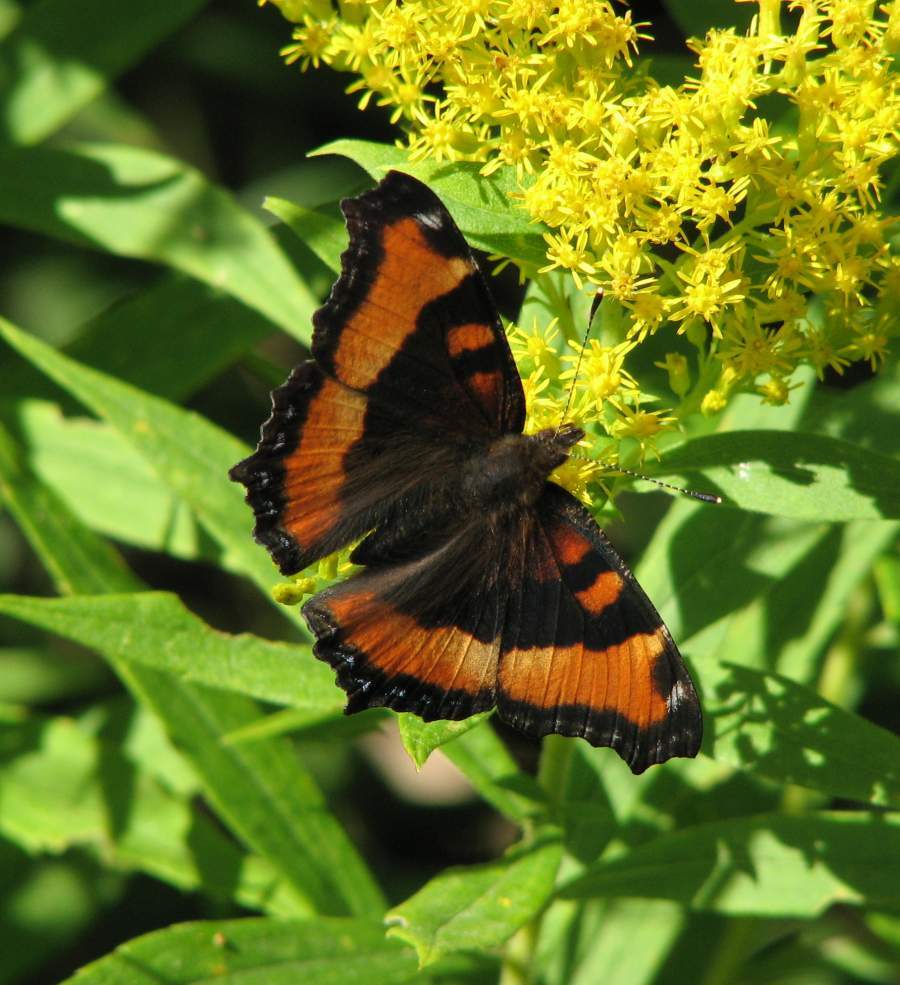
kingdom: Animalia
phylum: Arthropoda
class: Insecta
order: Lepidoptera
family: Nymphalidae
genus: Aglais
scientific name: Aglais milberti
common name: Milbert's tortoiseshell
